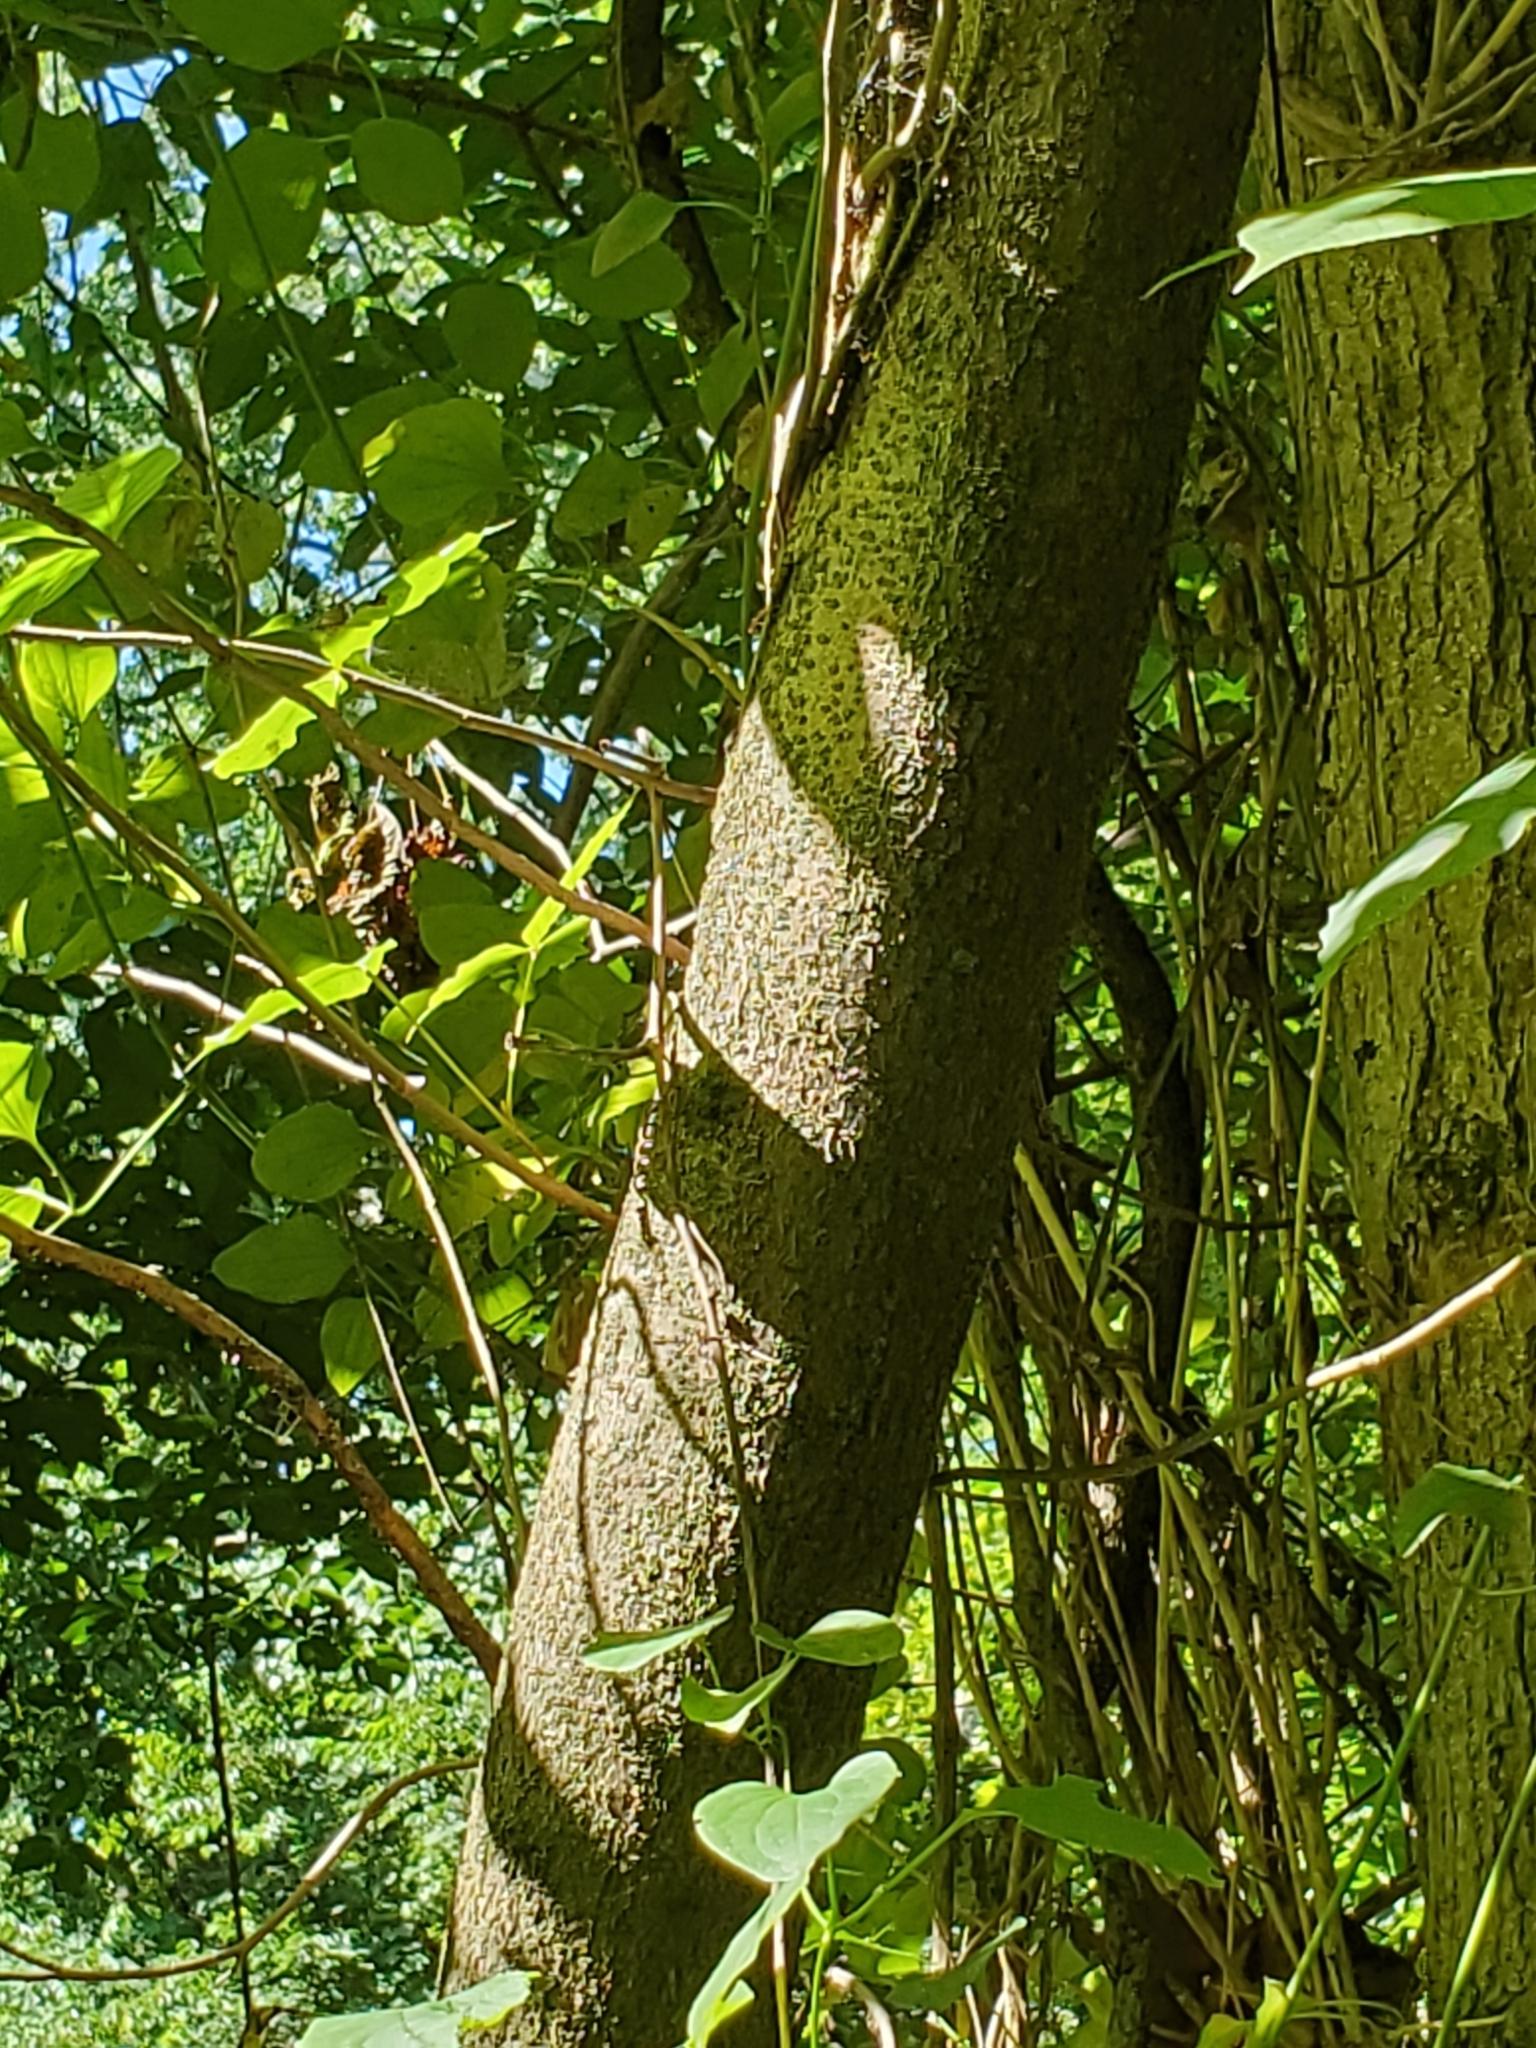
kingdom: Plantae
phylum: Tracheophyta
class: Magnoliopsida
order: Fabales
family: Fabaceae
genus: Gleditsia
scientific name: Gleditsia triacanthos
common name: Common honeylocust
